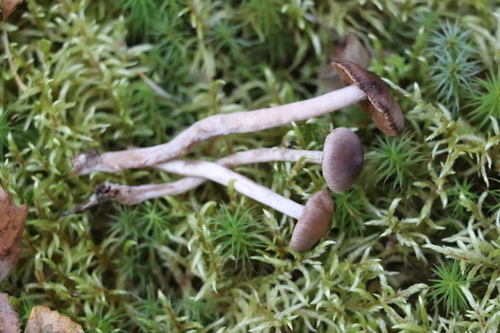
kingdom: Fungi
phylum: Basidiomycota
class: Agaricomycetes
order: Agaricales
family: Cortinariaceae
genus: Cortinarius
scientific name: Cortinarius
